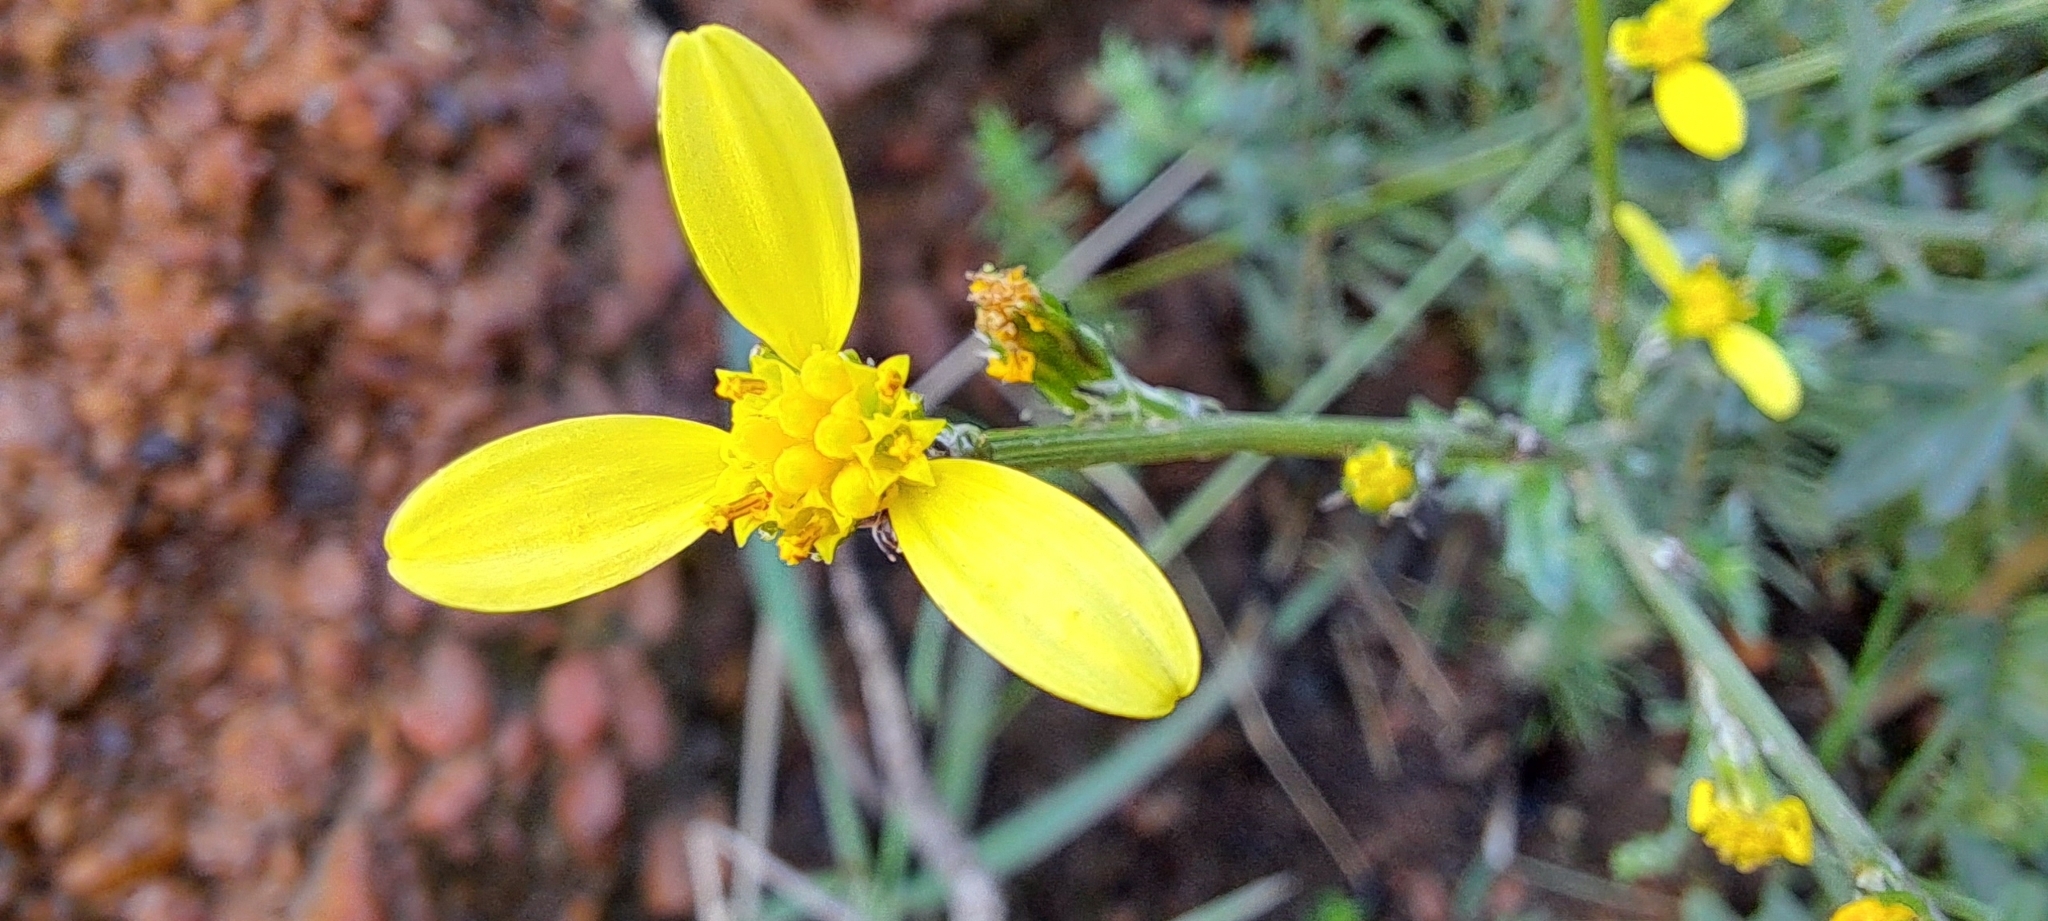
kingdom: Plantae
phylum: Tracheophyta
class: Magnoliopsida
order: Asterales
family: Asteraceae
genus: Senecio
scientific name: Senecio pubigerus
